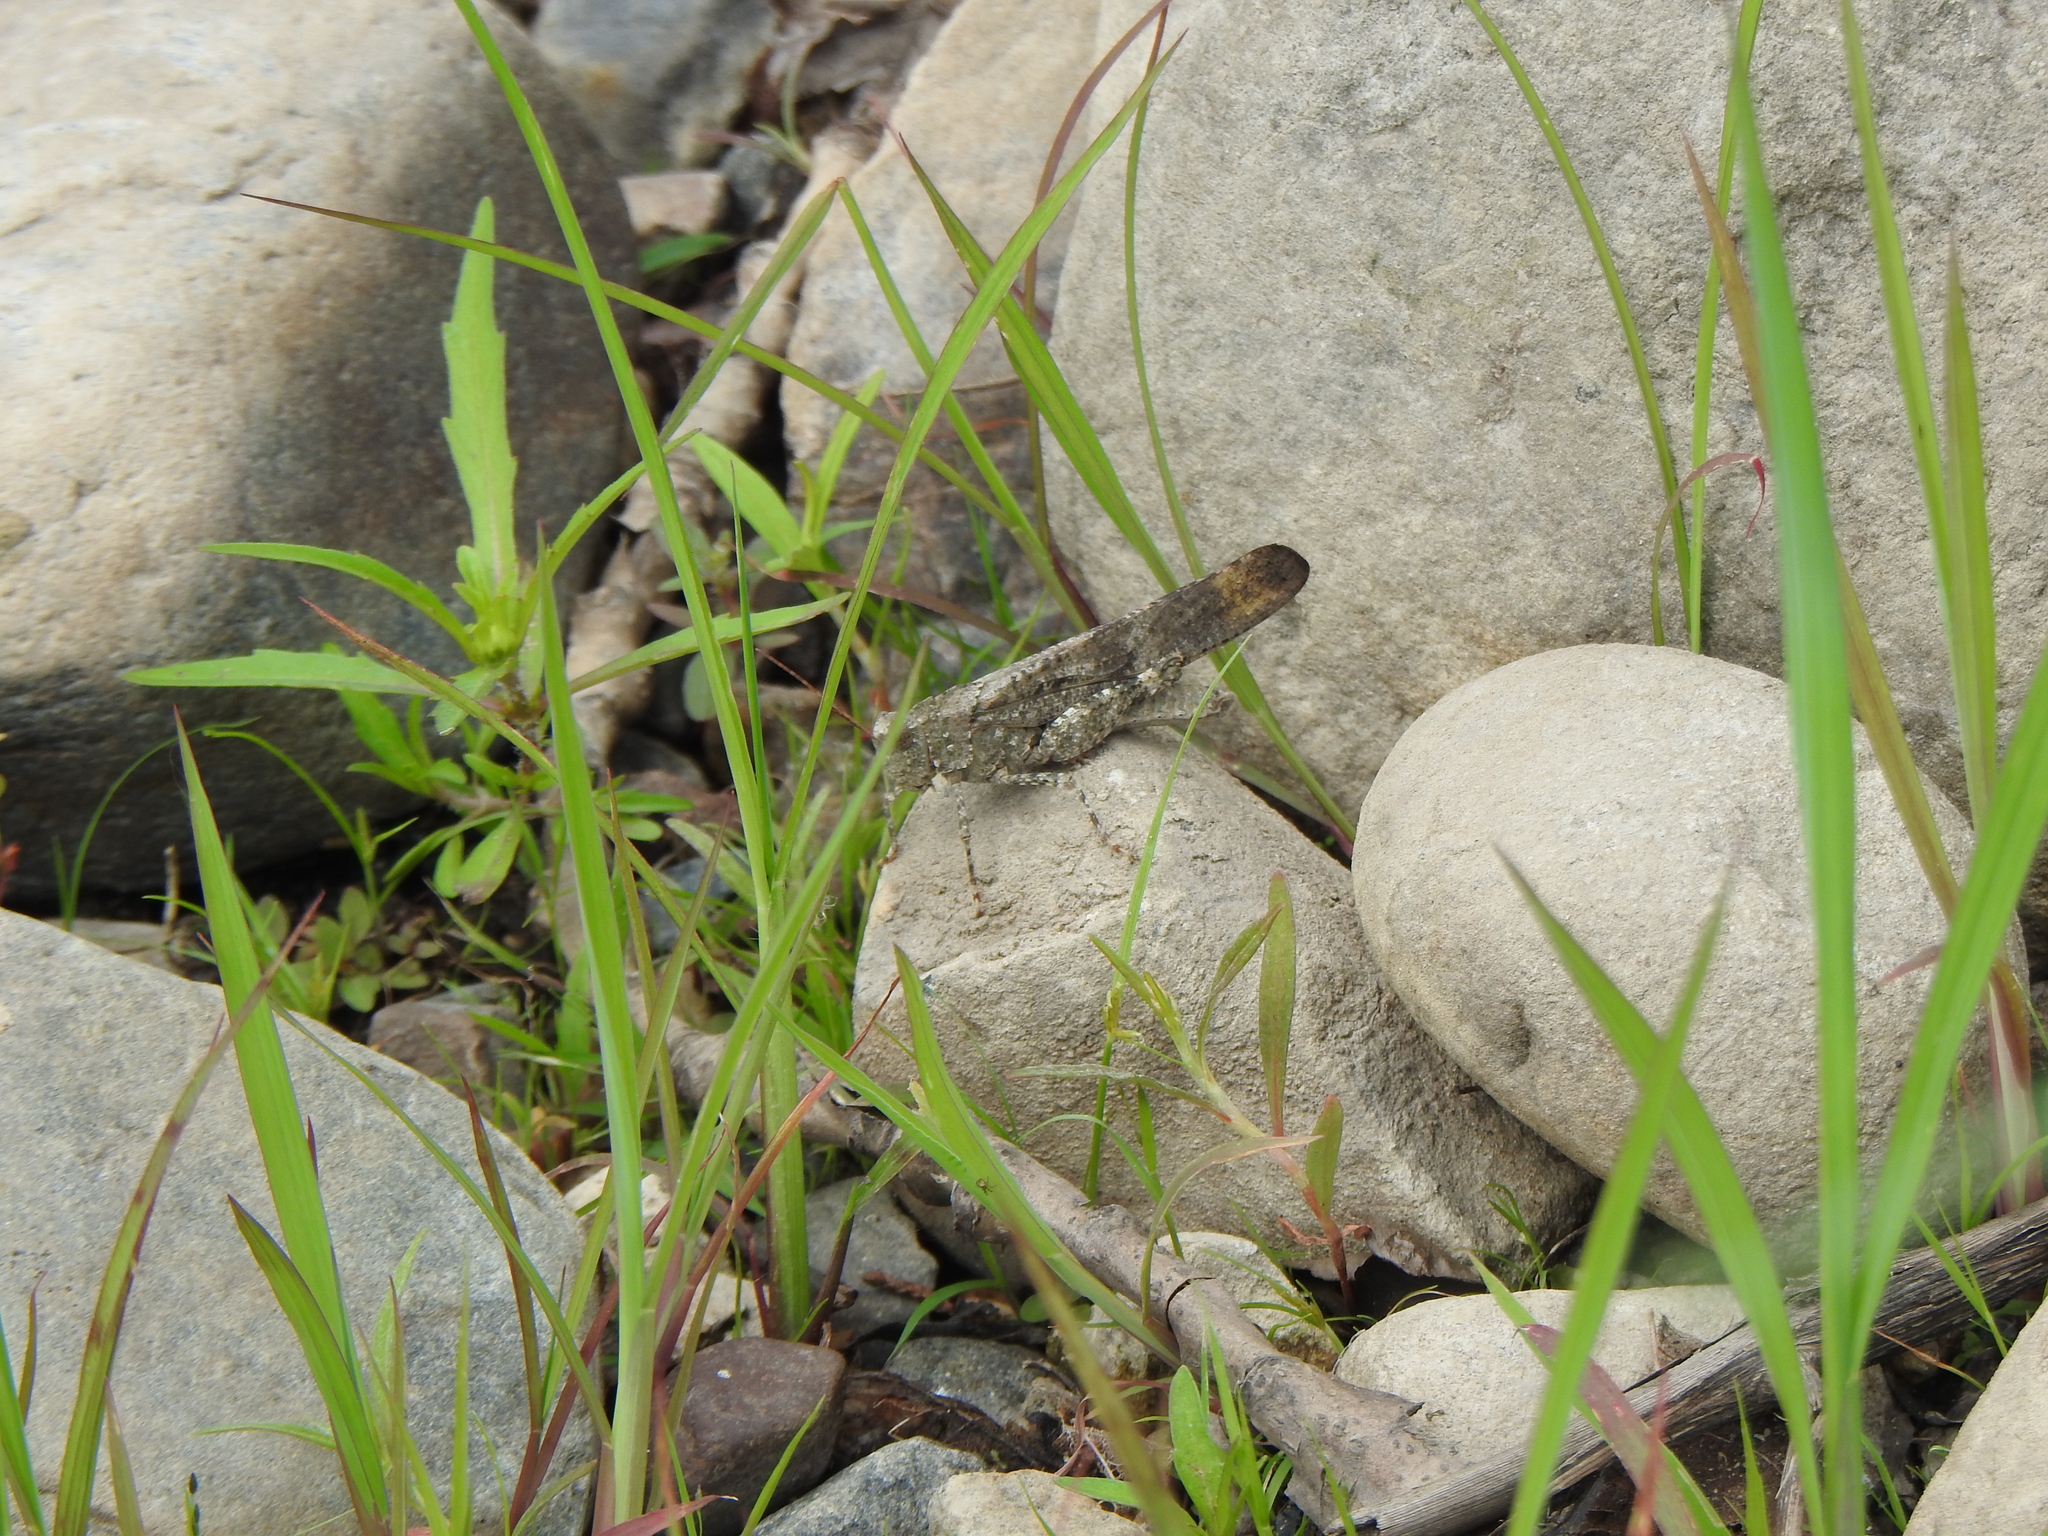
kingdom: Animalia
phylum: Arthropoda
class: Insecta
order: Orthoptera
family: Acrididae
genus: Dissosteira
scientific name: Dissosteira carolina
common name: Carolina grasshopper
